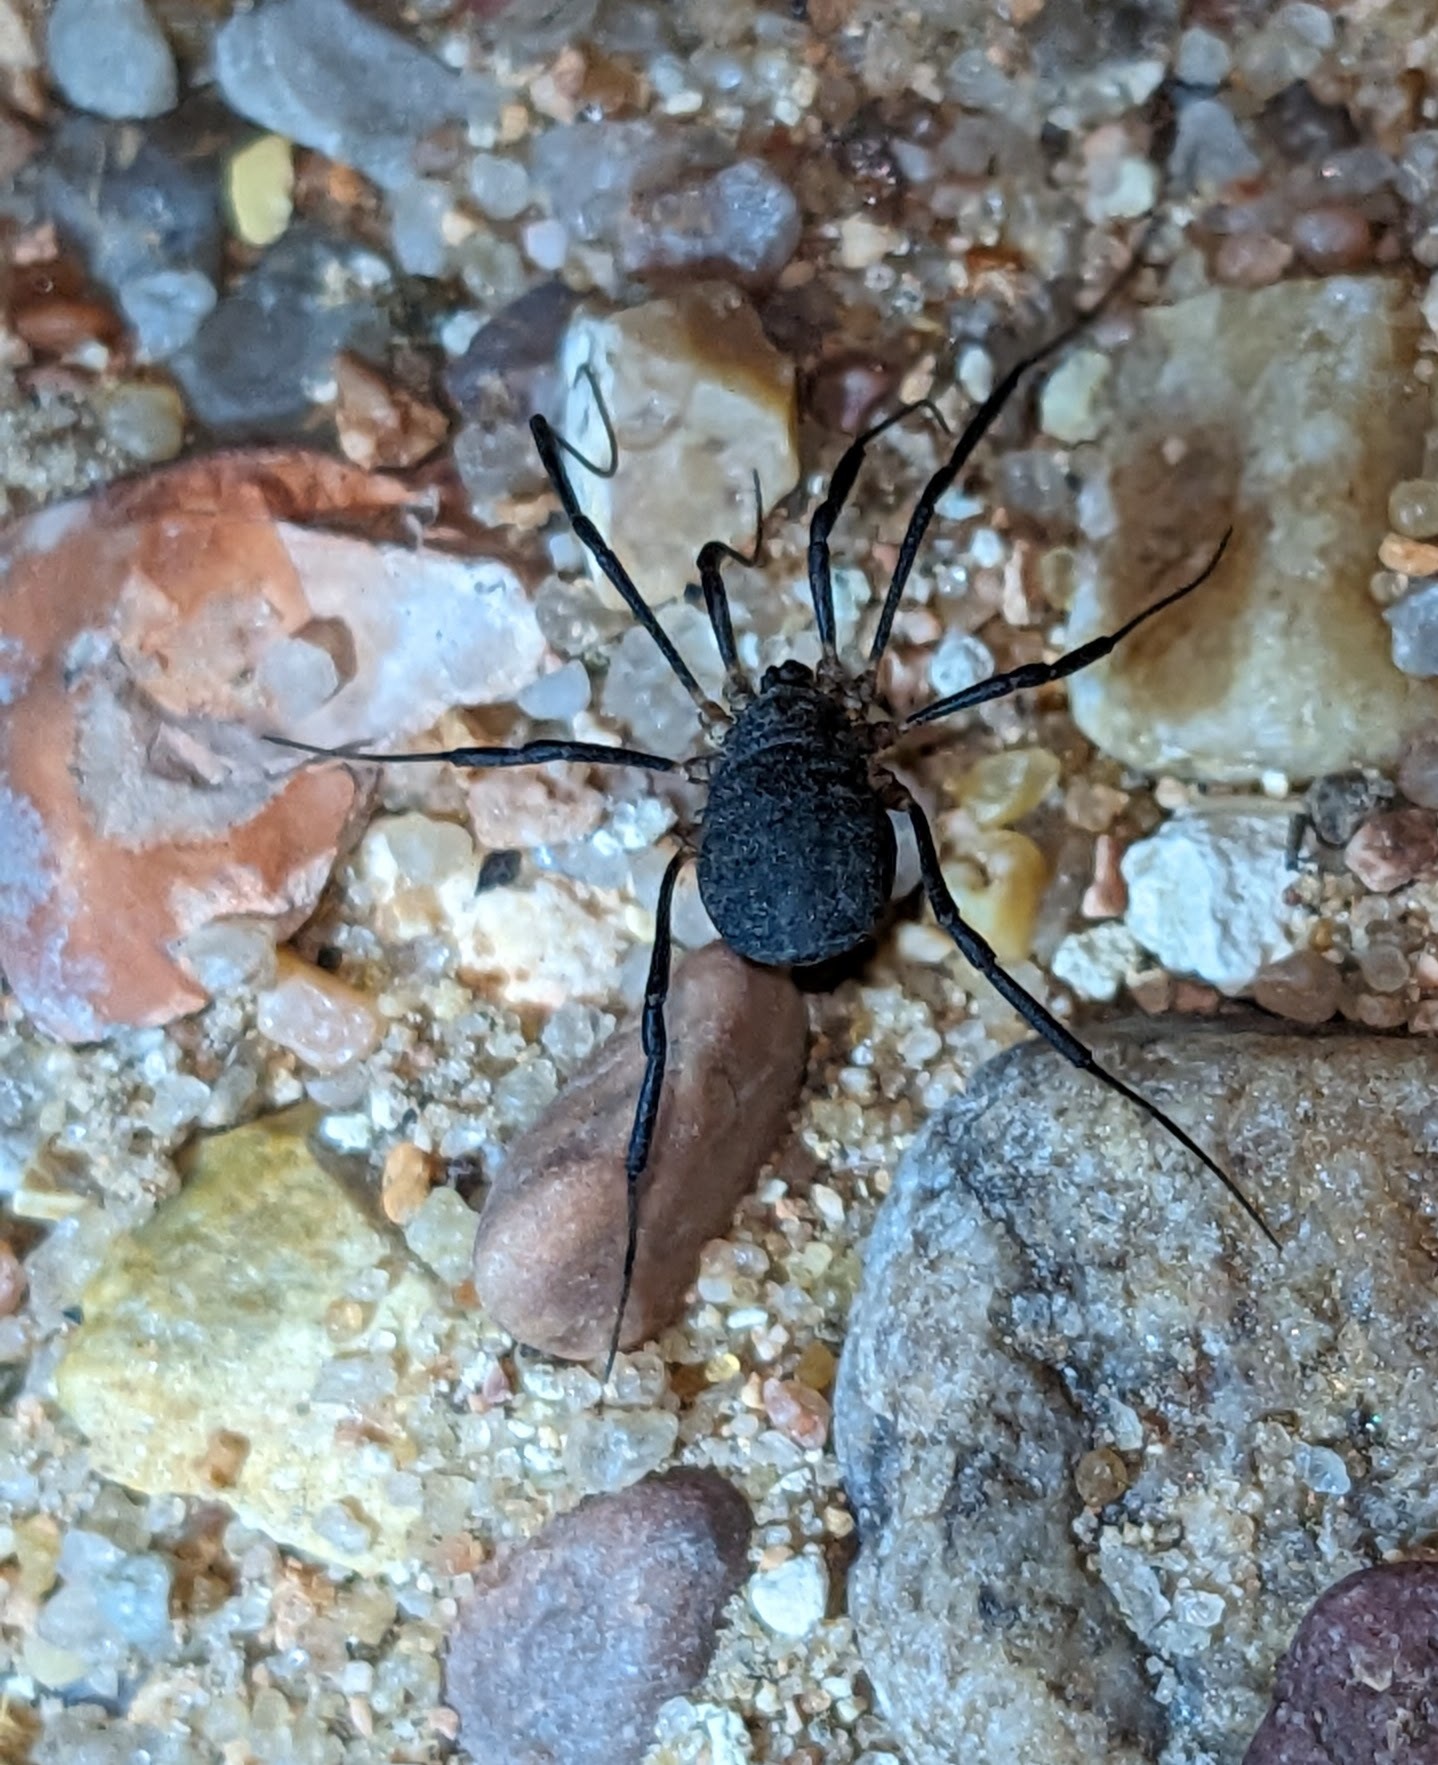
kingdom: Animalia
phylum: Arthropoda
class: Arachnida
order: Opiliones
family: Sclerosomatidae
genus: Eumesosoma
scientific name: Eumesosoma roeweri
